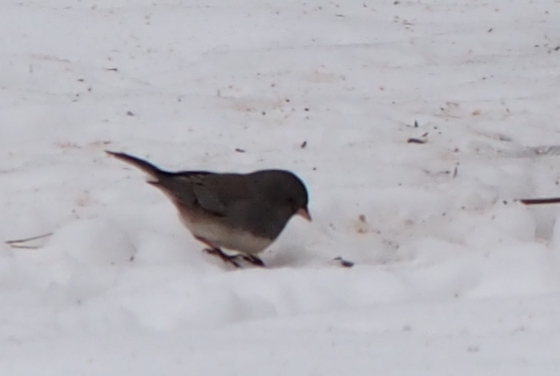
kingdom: Animalia
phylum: Chordata
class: Aves
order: Passeriformes
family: Passerellidae
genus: Junco
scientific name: Junco hyemalis
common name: Dark-eyed junco
